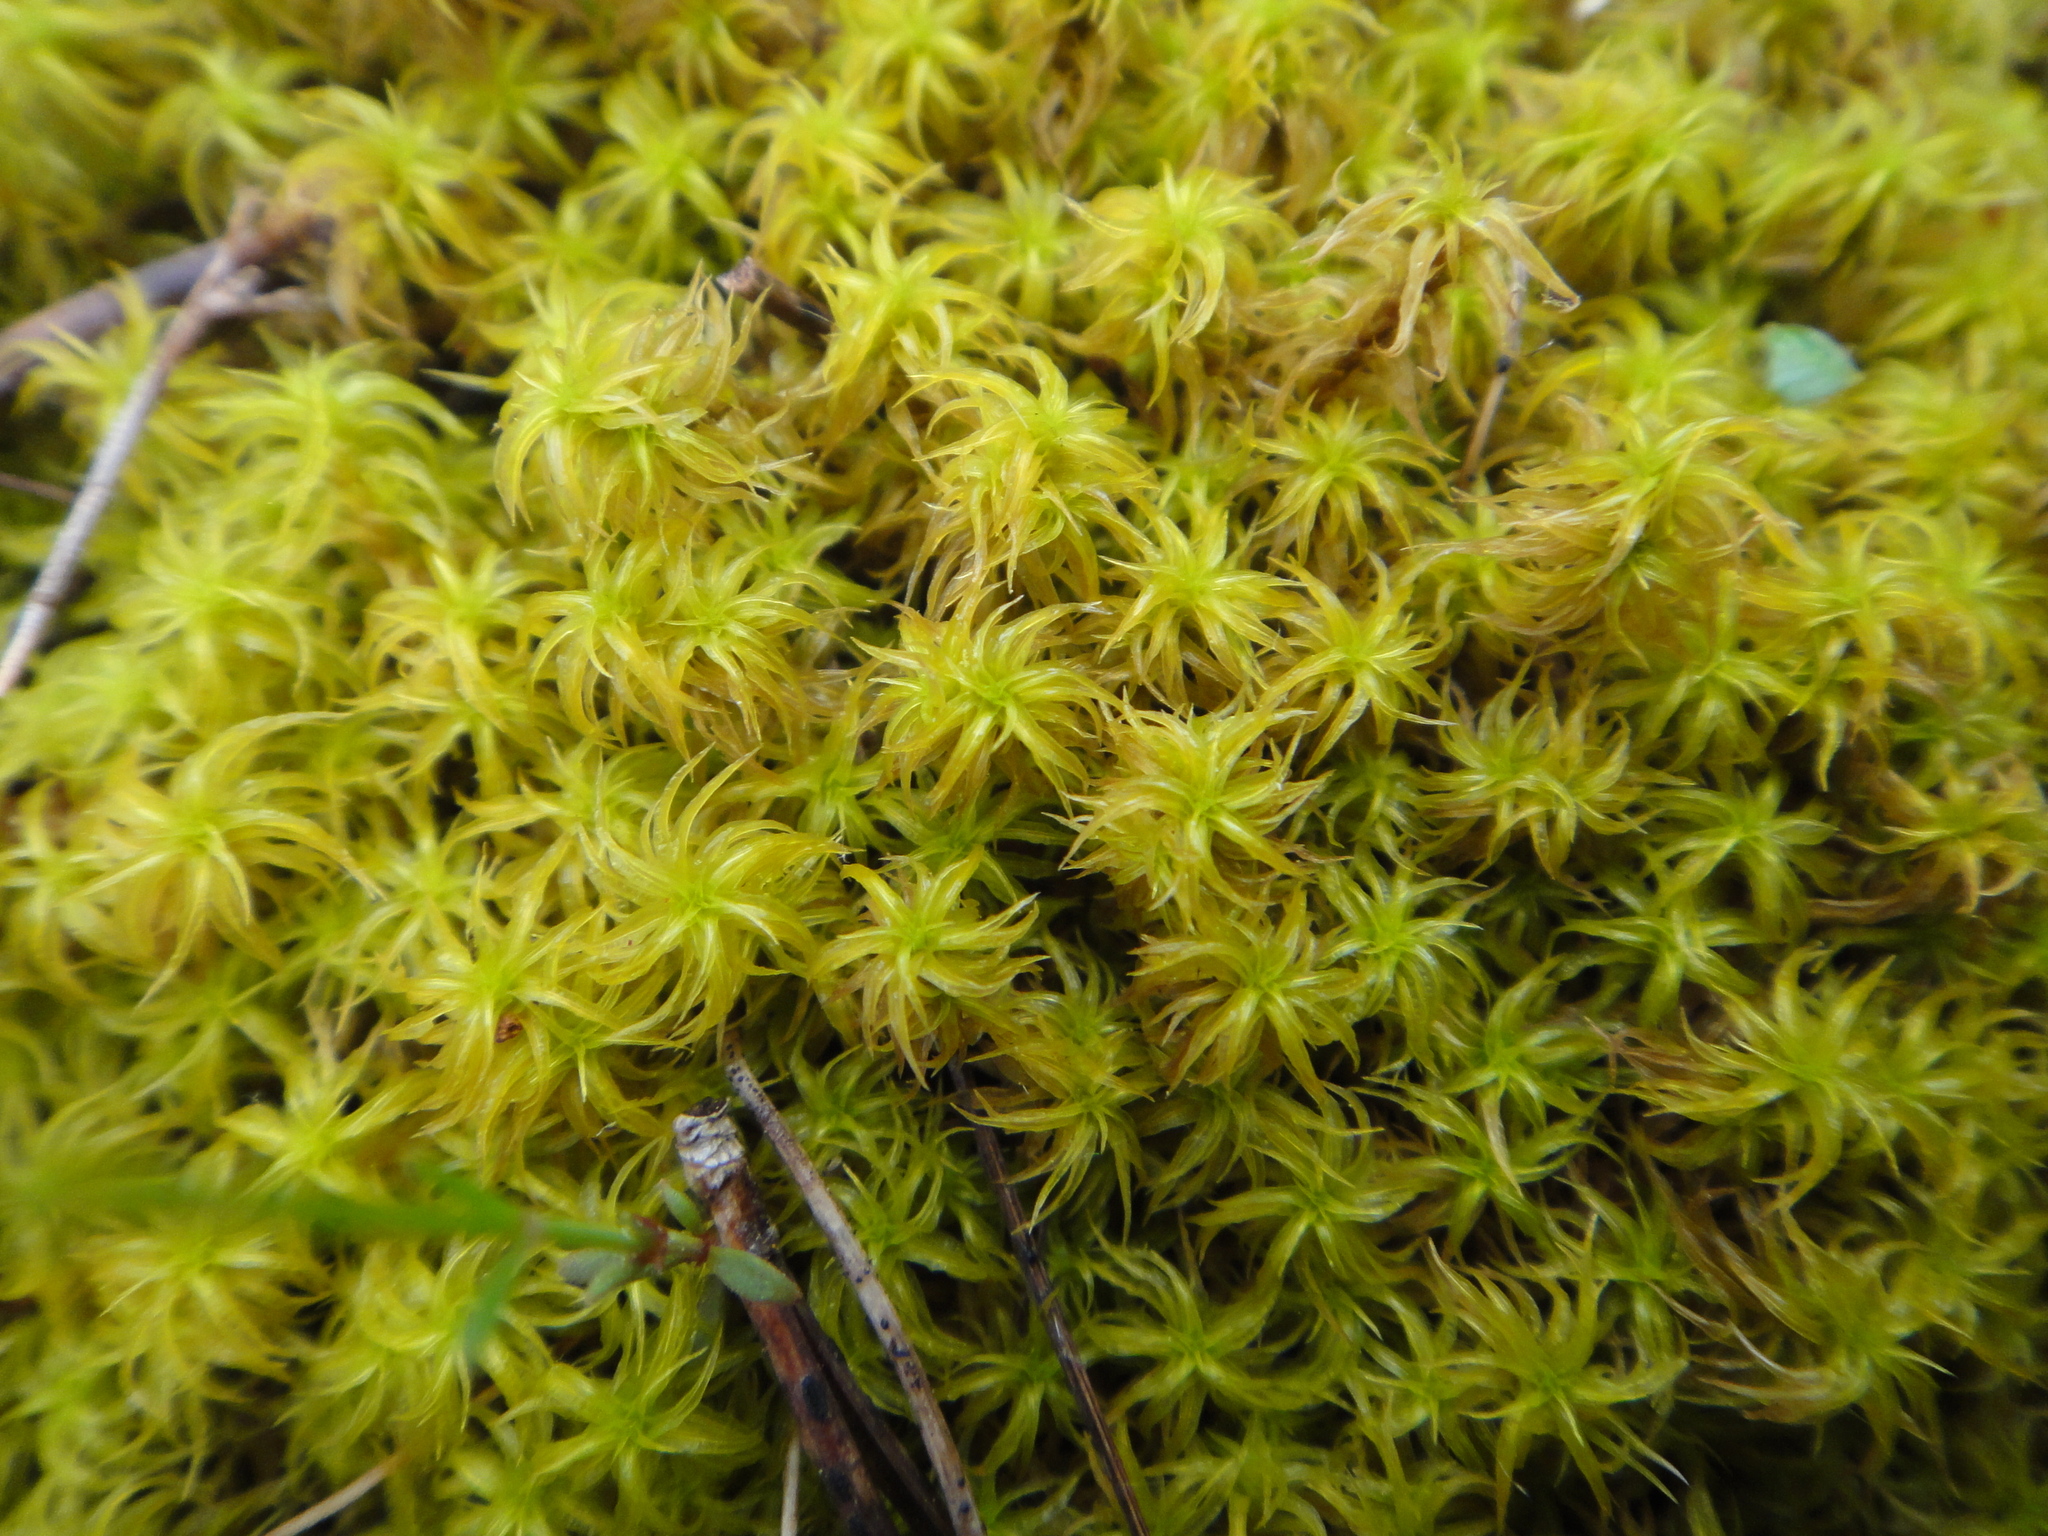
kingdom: Plantae
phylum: Bryophyta
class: Bryopsida
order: Pottiales
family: Pottiaceae
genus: Pleurochaete
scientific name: Pleurochaete squarrosa
